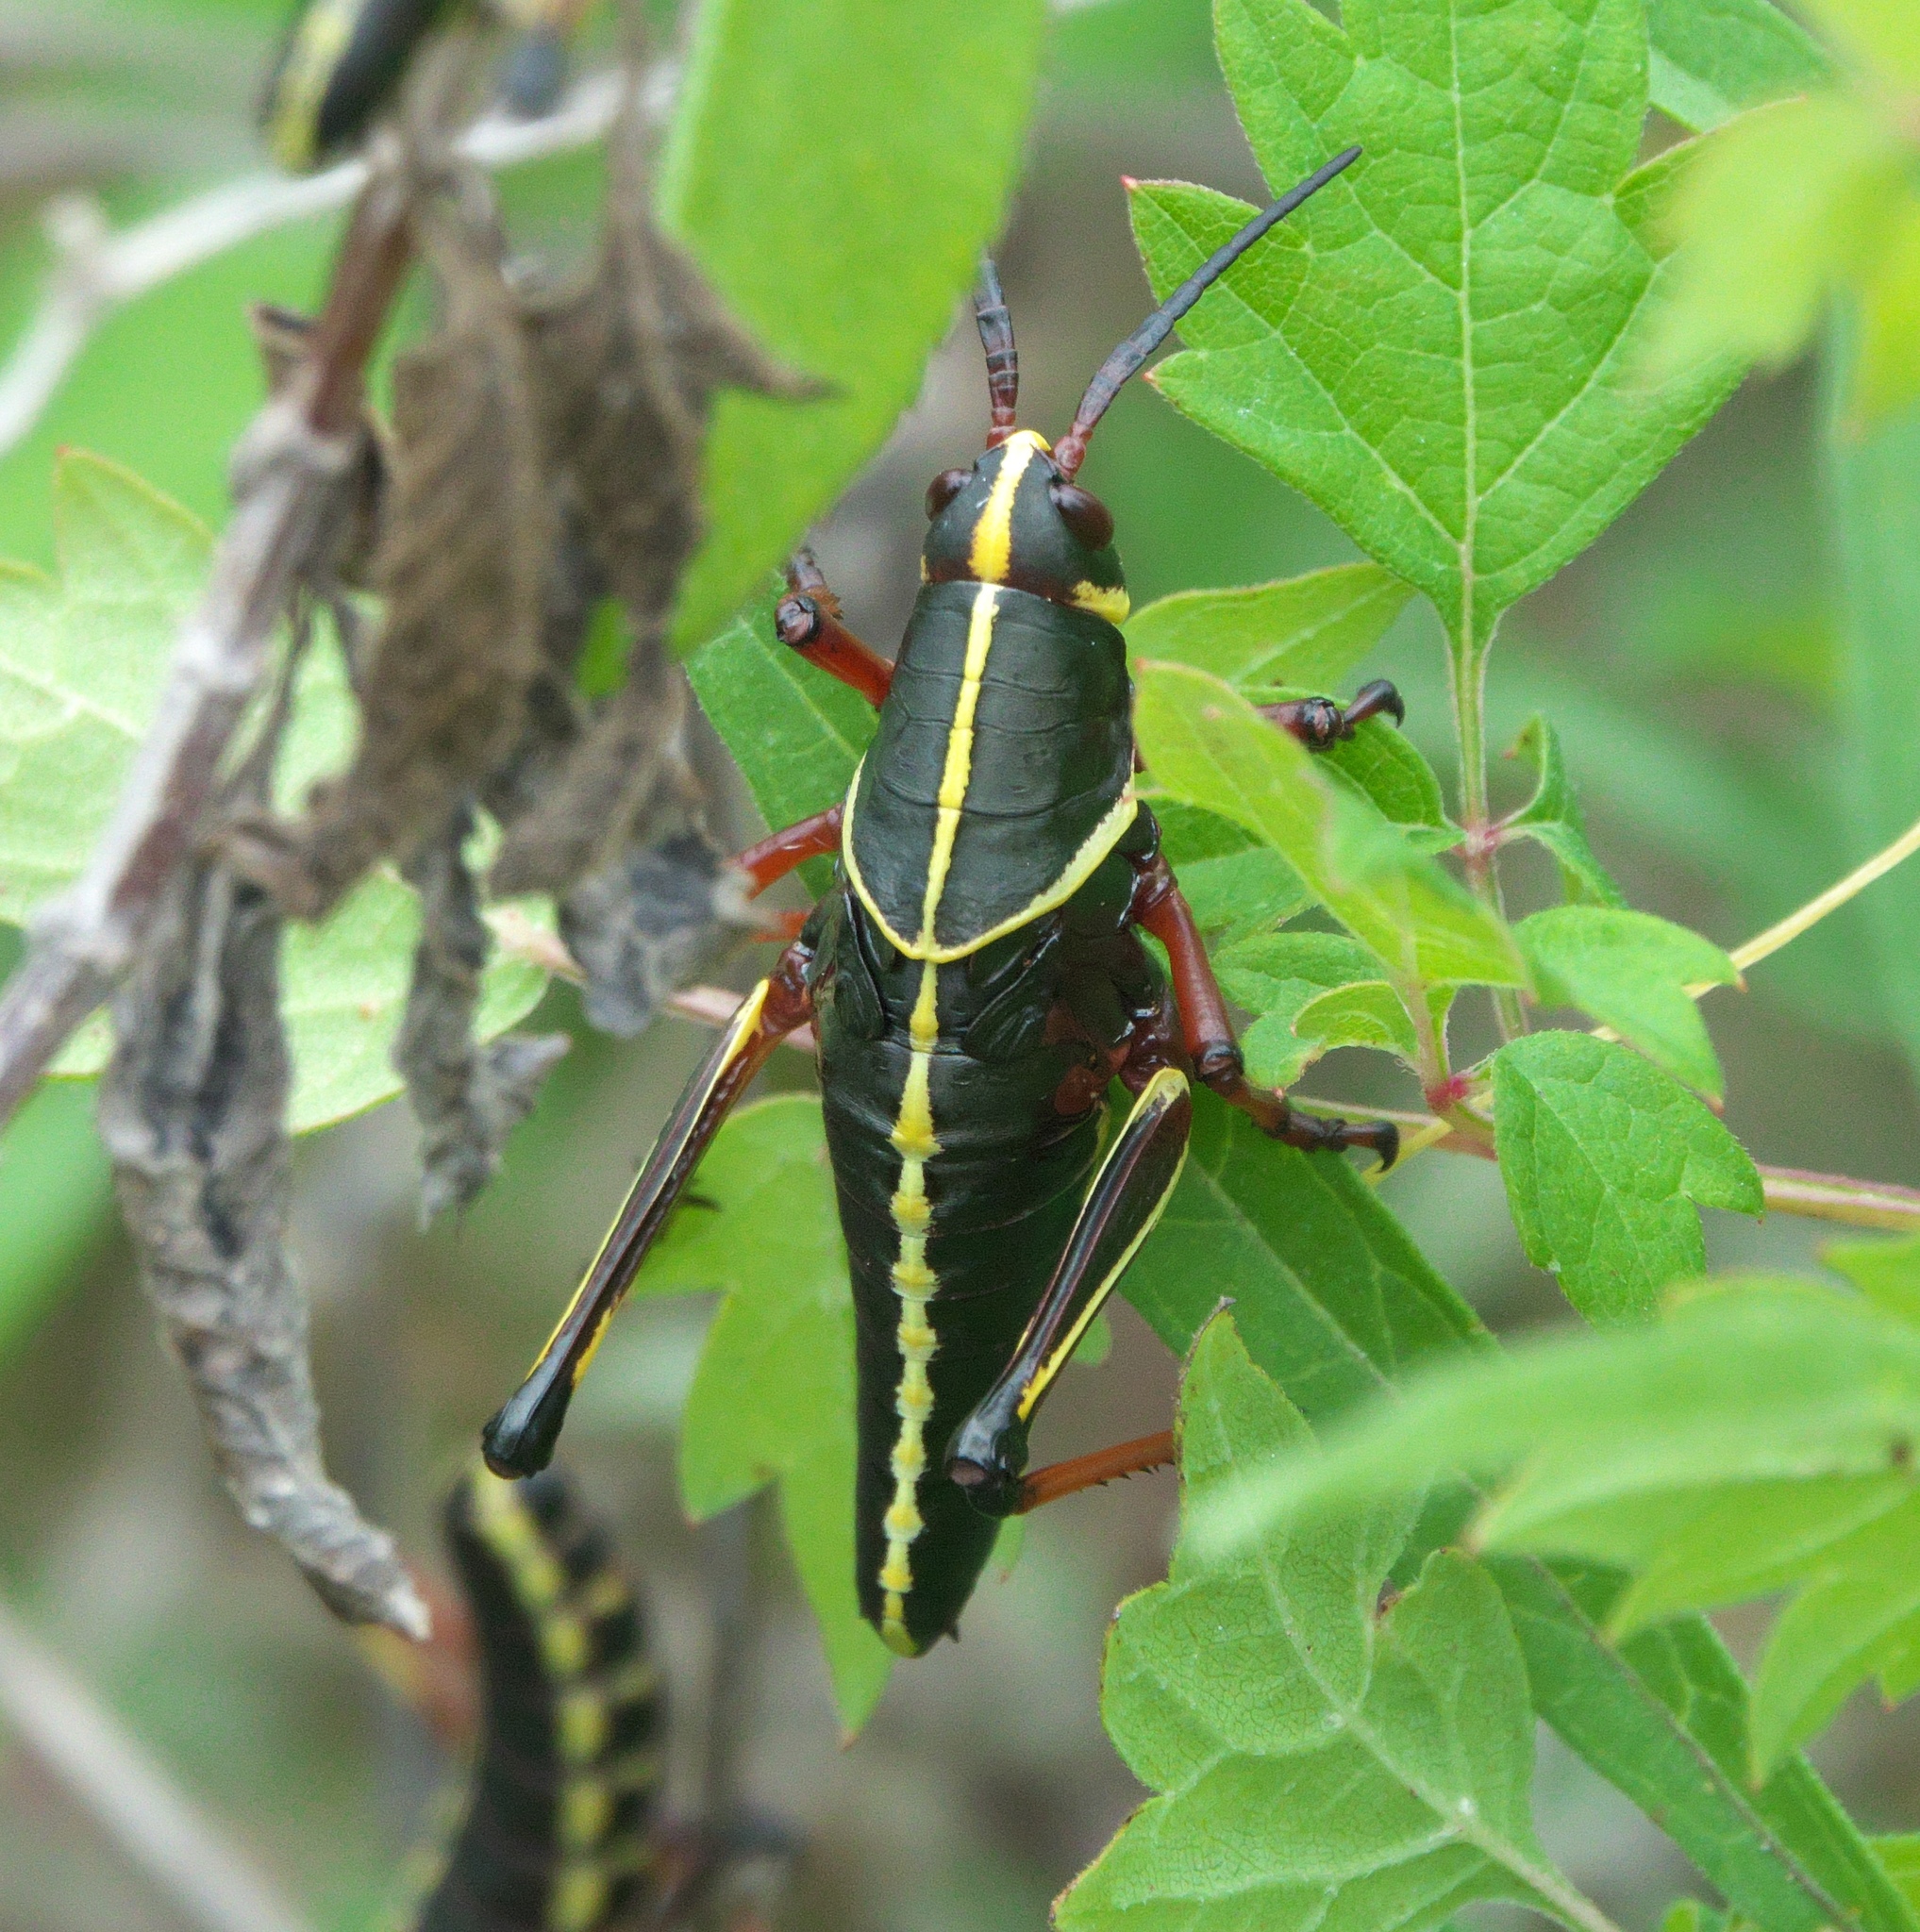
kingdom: Animalia
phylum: Arthropoda
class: Insecta
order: Orthoptera
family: Romaleidae
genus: Romalea
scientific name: Romalea microptera
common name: Eastern lubber grasshopper
